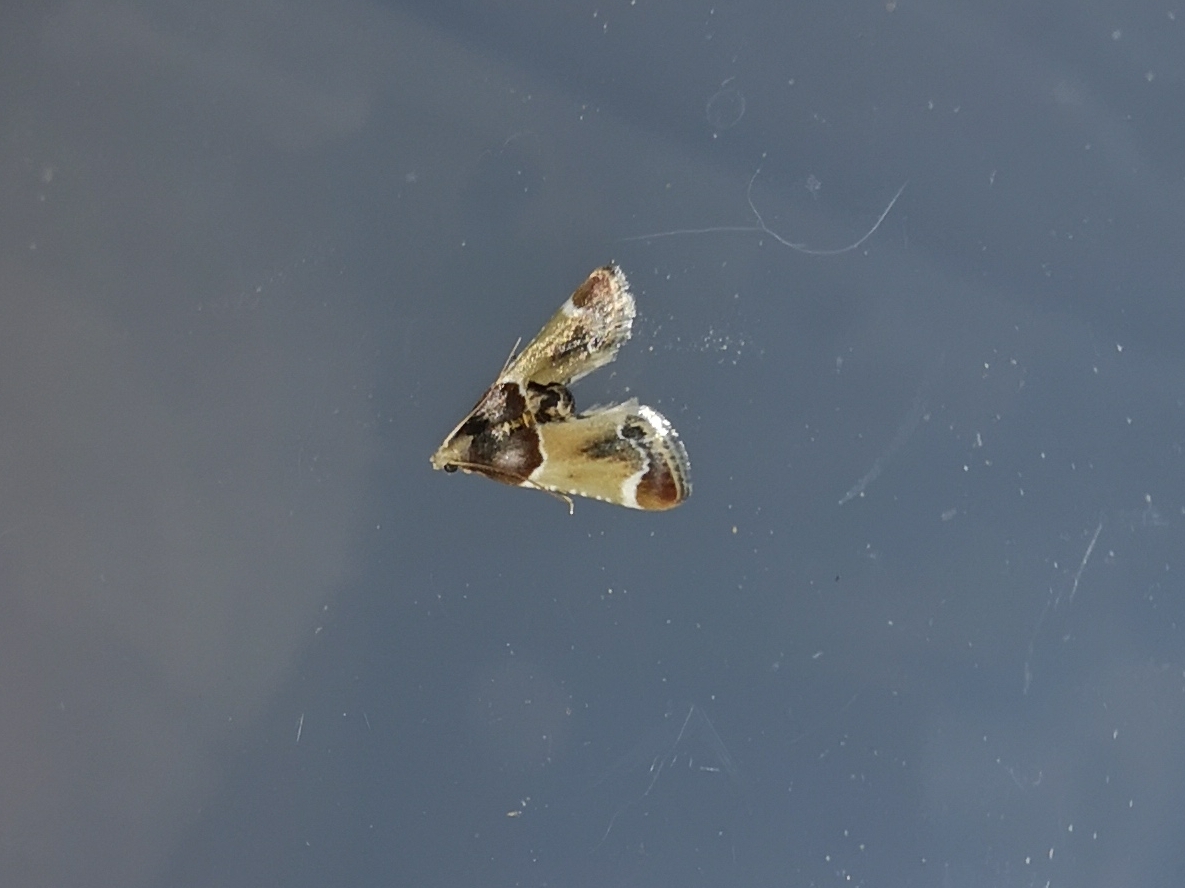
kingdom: Animalia
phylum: Arthropoda
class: Insecta
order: Lepidoptera
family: Pyralidae
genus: Pyralis
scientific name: Pyralis farinalis
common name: Meal moth
